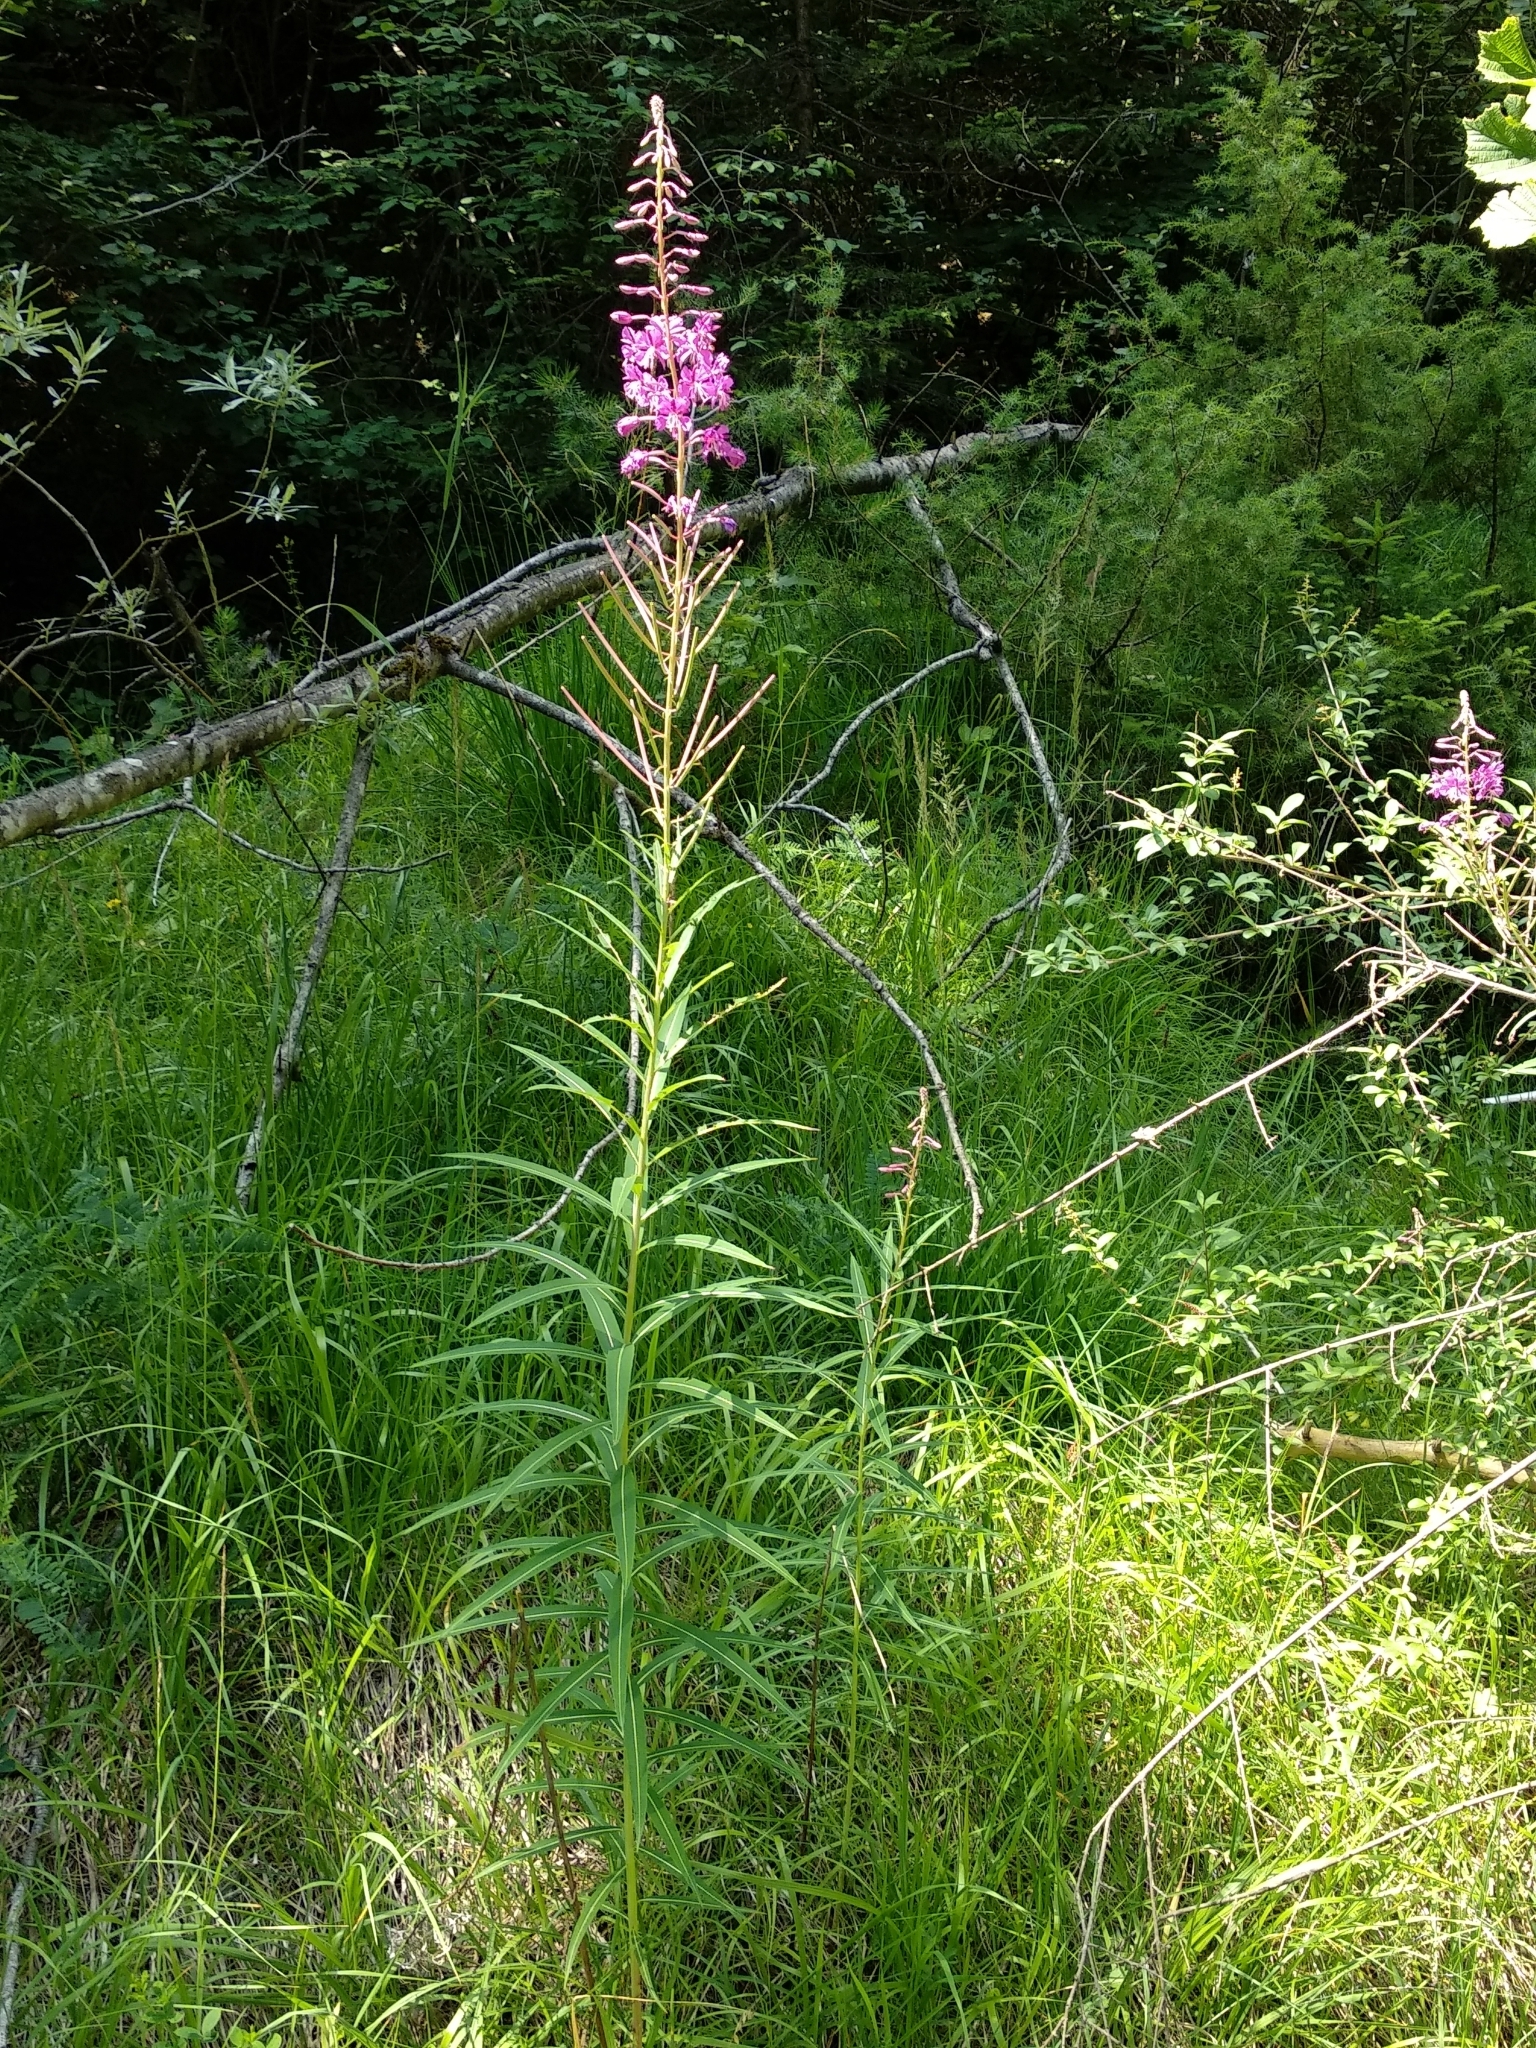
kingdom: Plantae
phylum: Tracheophyta
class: Magnoliopsida
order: Myrtales
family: Onagraceae
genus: Chamaenerion
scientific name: Chamaenerion angustifolium
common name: Fireweed
